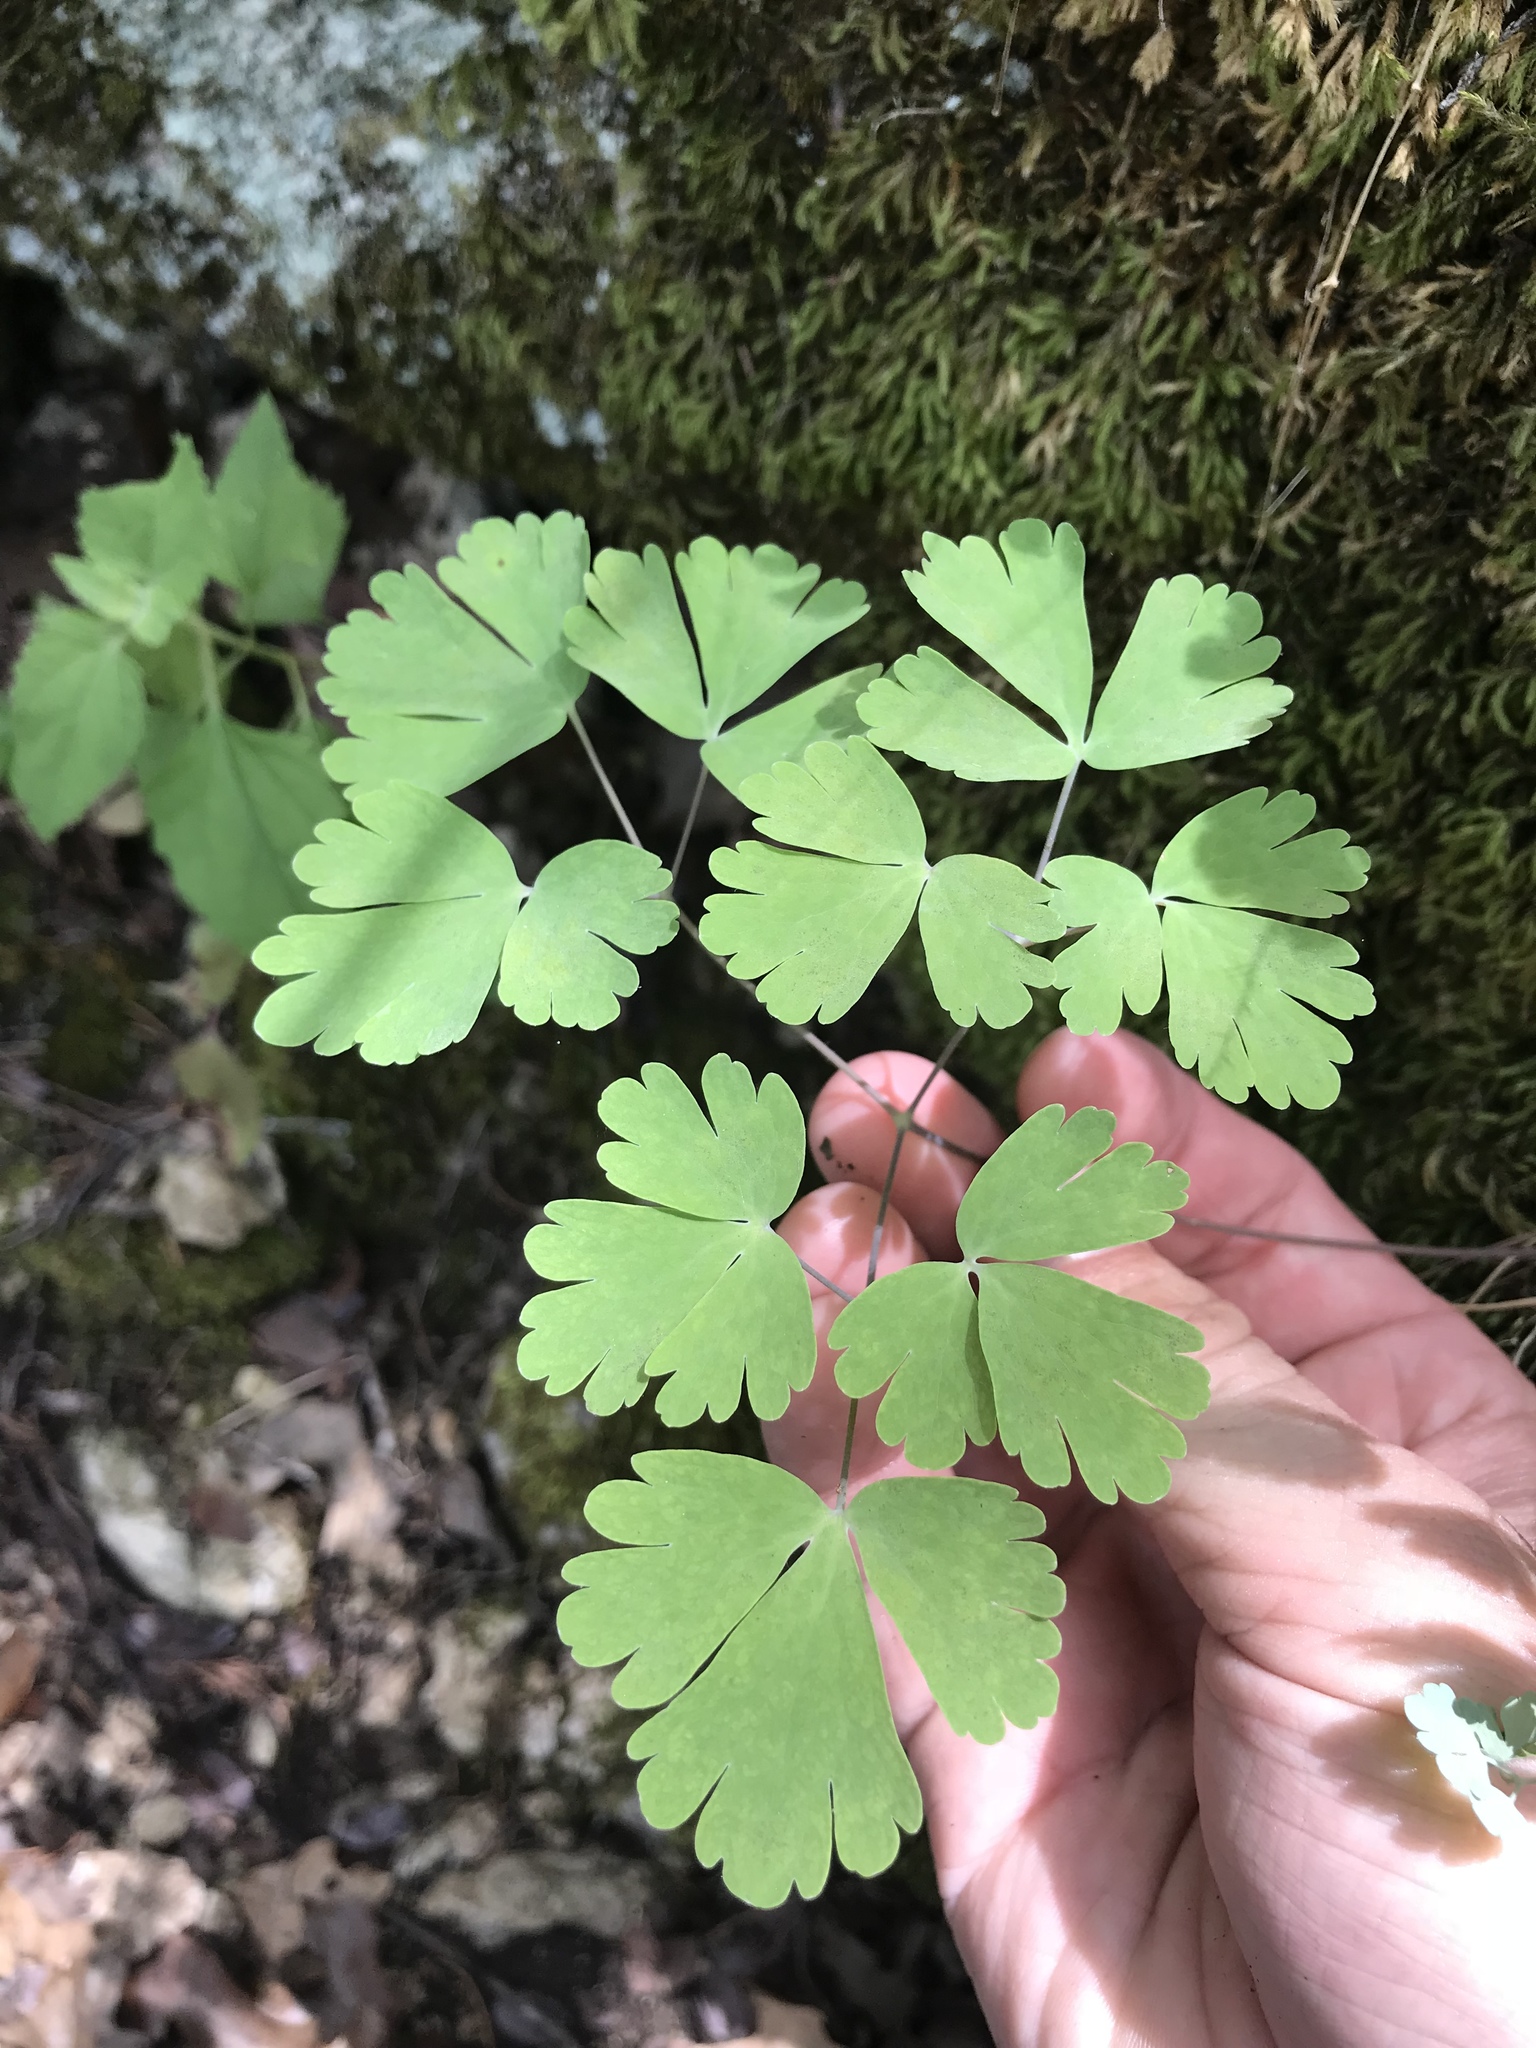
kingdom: Plantae
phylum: Tracheophyta
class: Magnoliopsida
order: Ranunculales
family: Ranunculaceae
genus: Aquilegia
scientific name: Aquilegia canadensis
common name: American columbine
